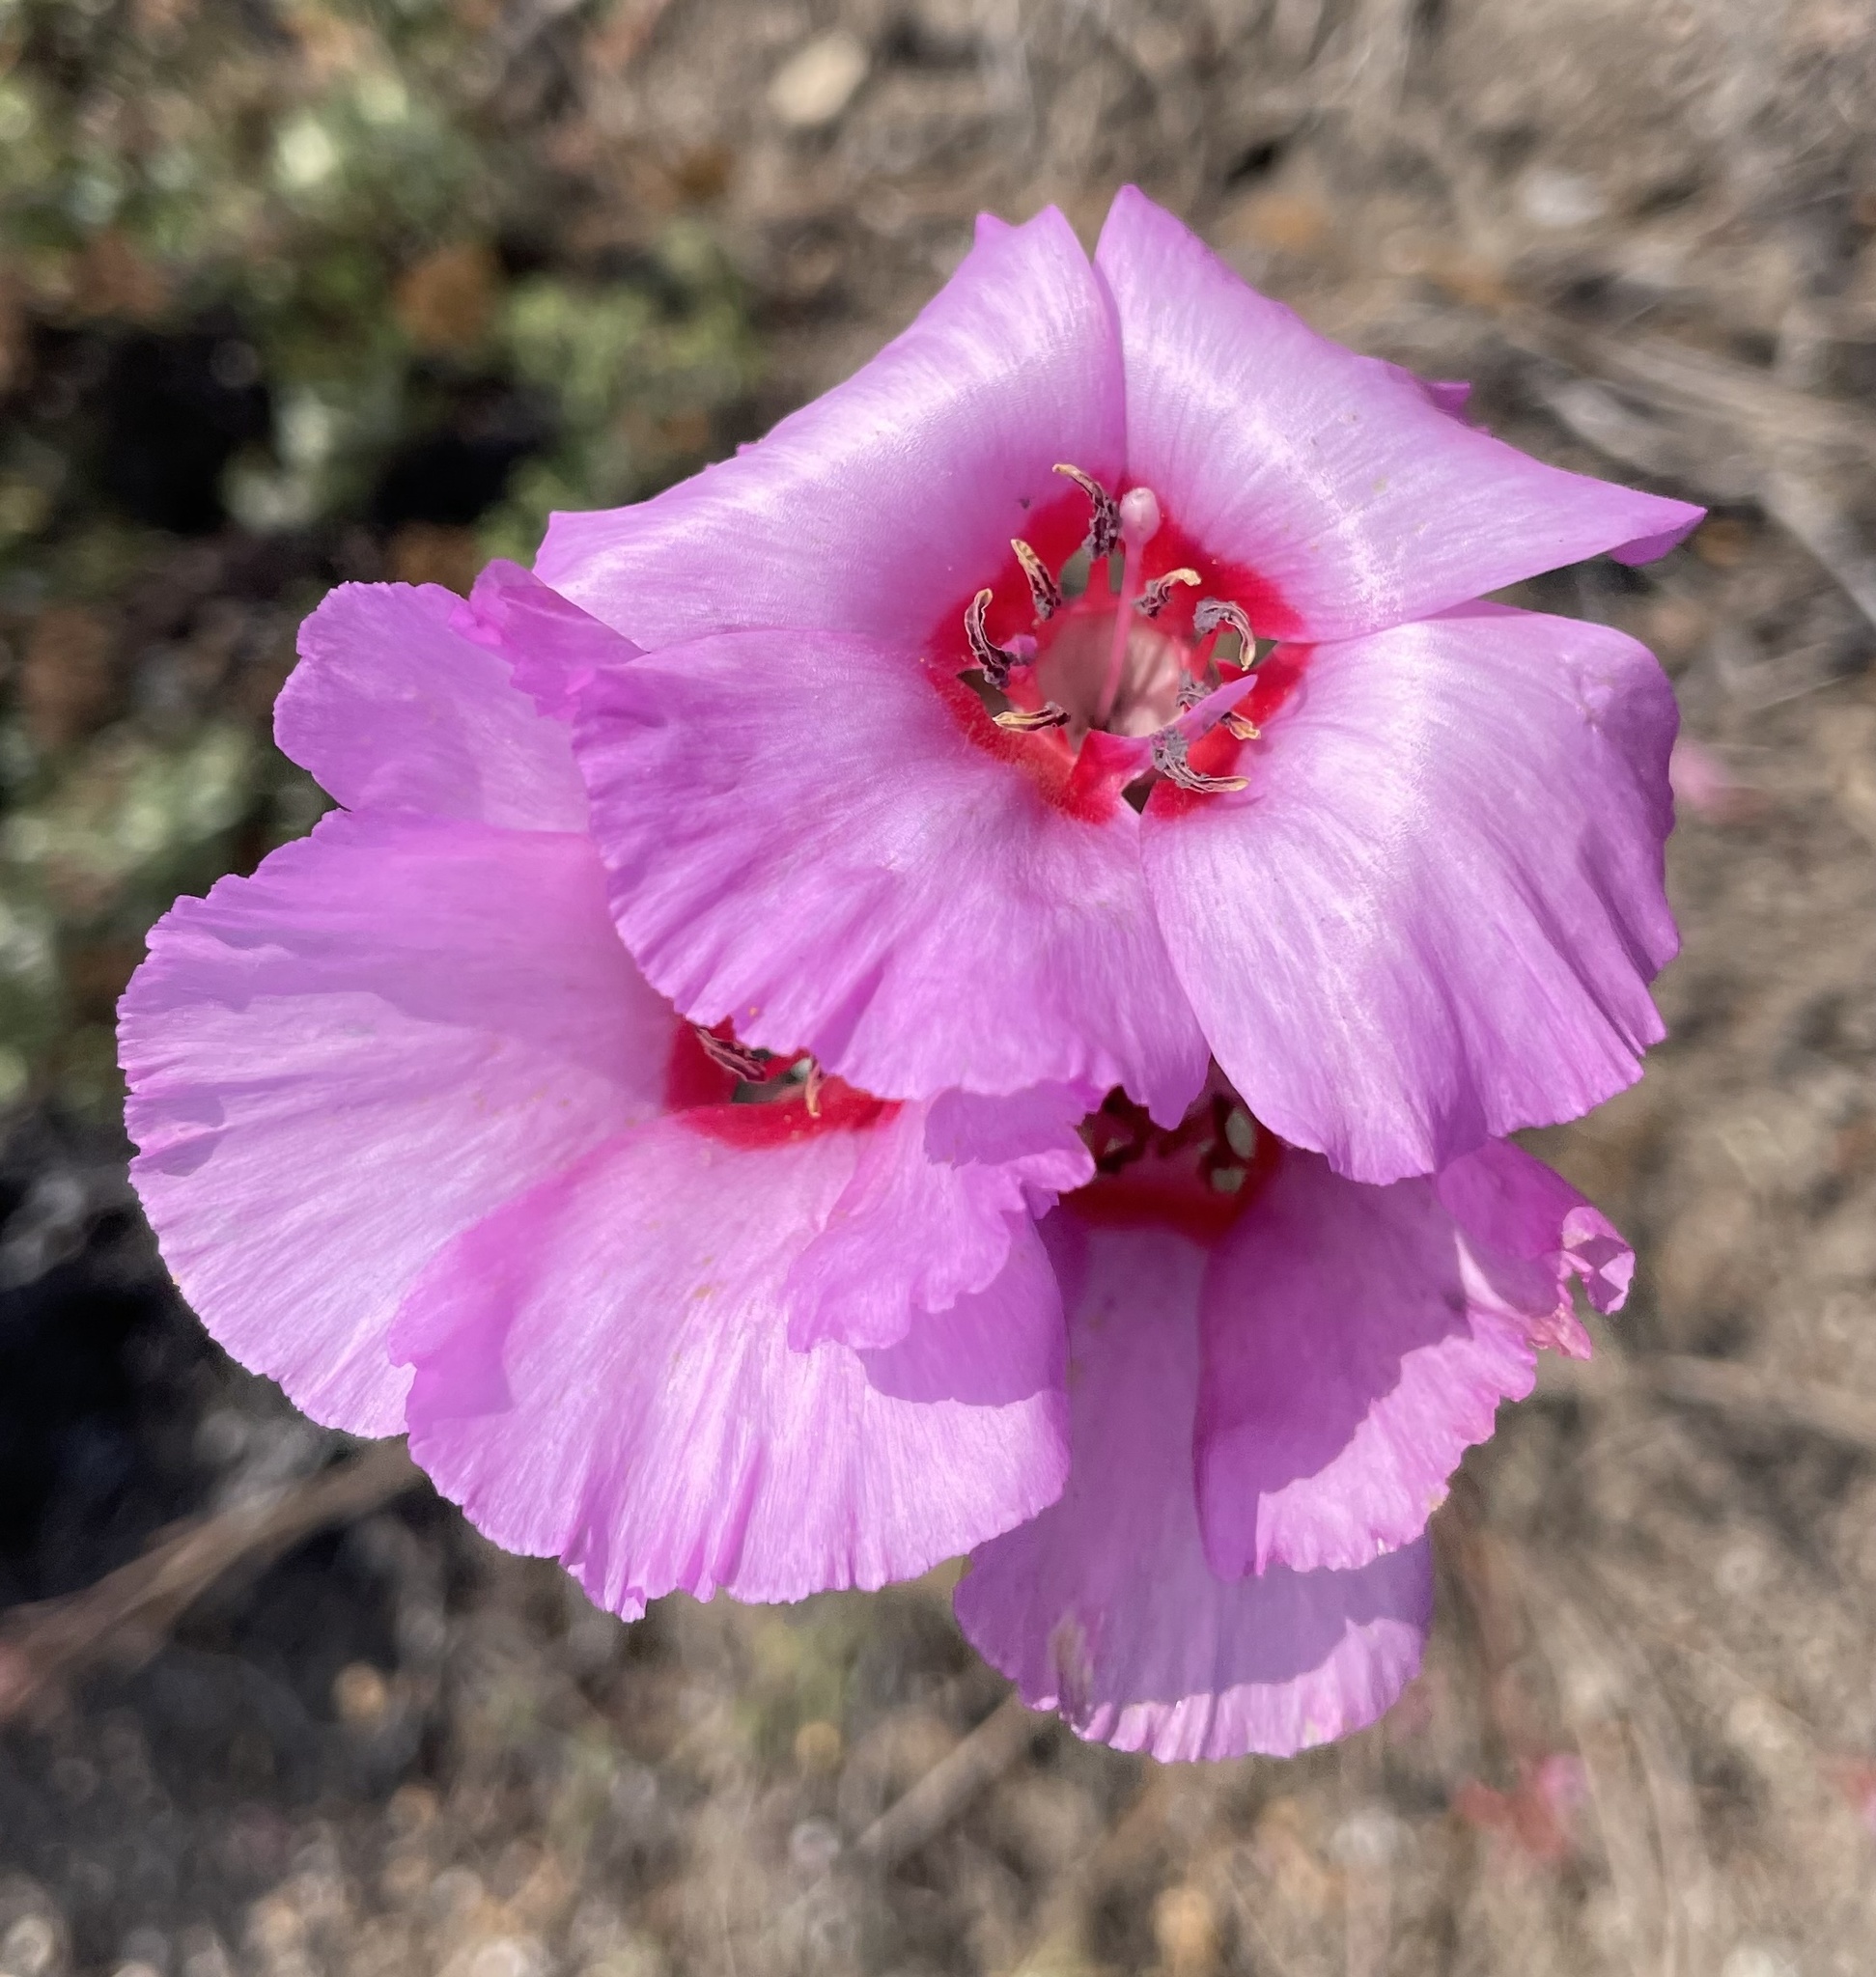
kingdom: Plantae
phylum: Tracheophyta
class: Magnoliopsida
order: Myrtales
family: Onagraceae
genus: Clarkia
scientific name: Clarkia rubicunda
